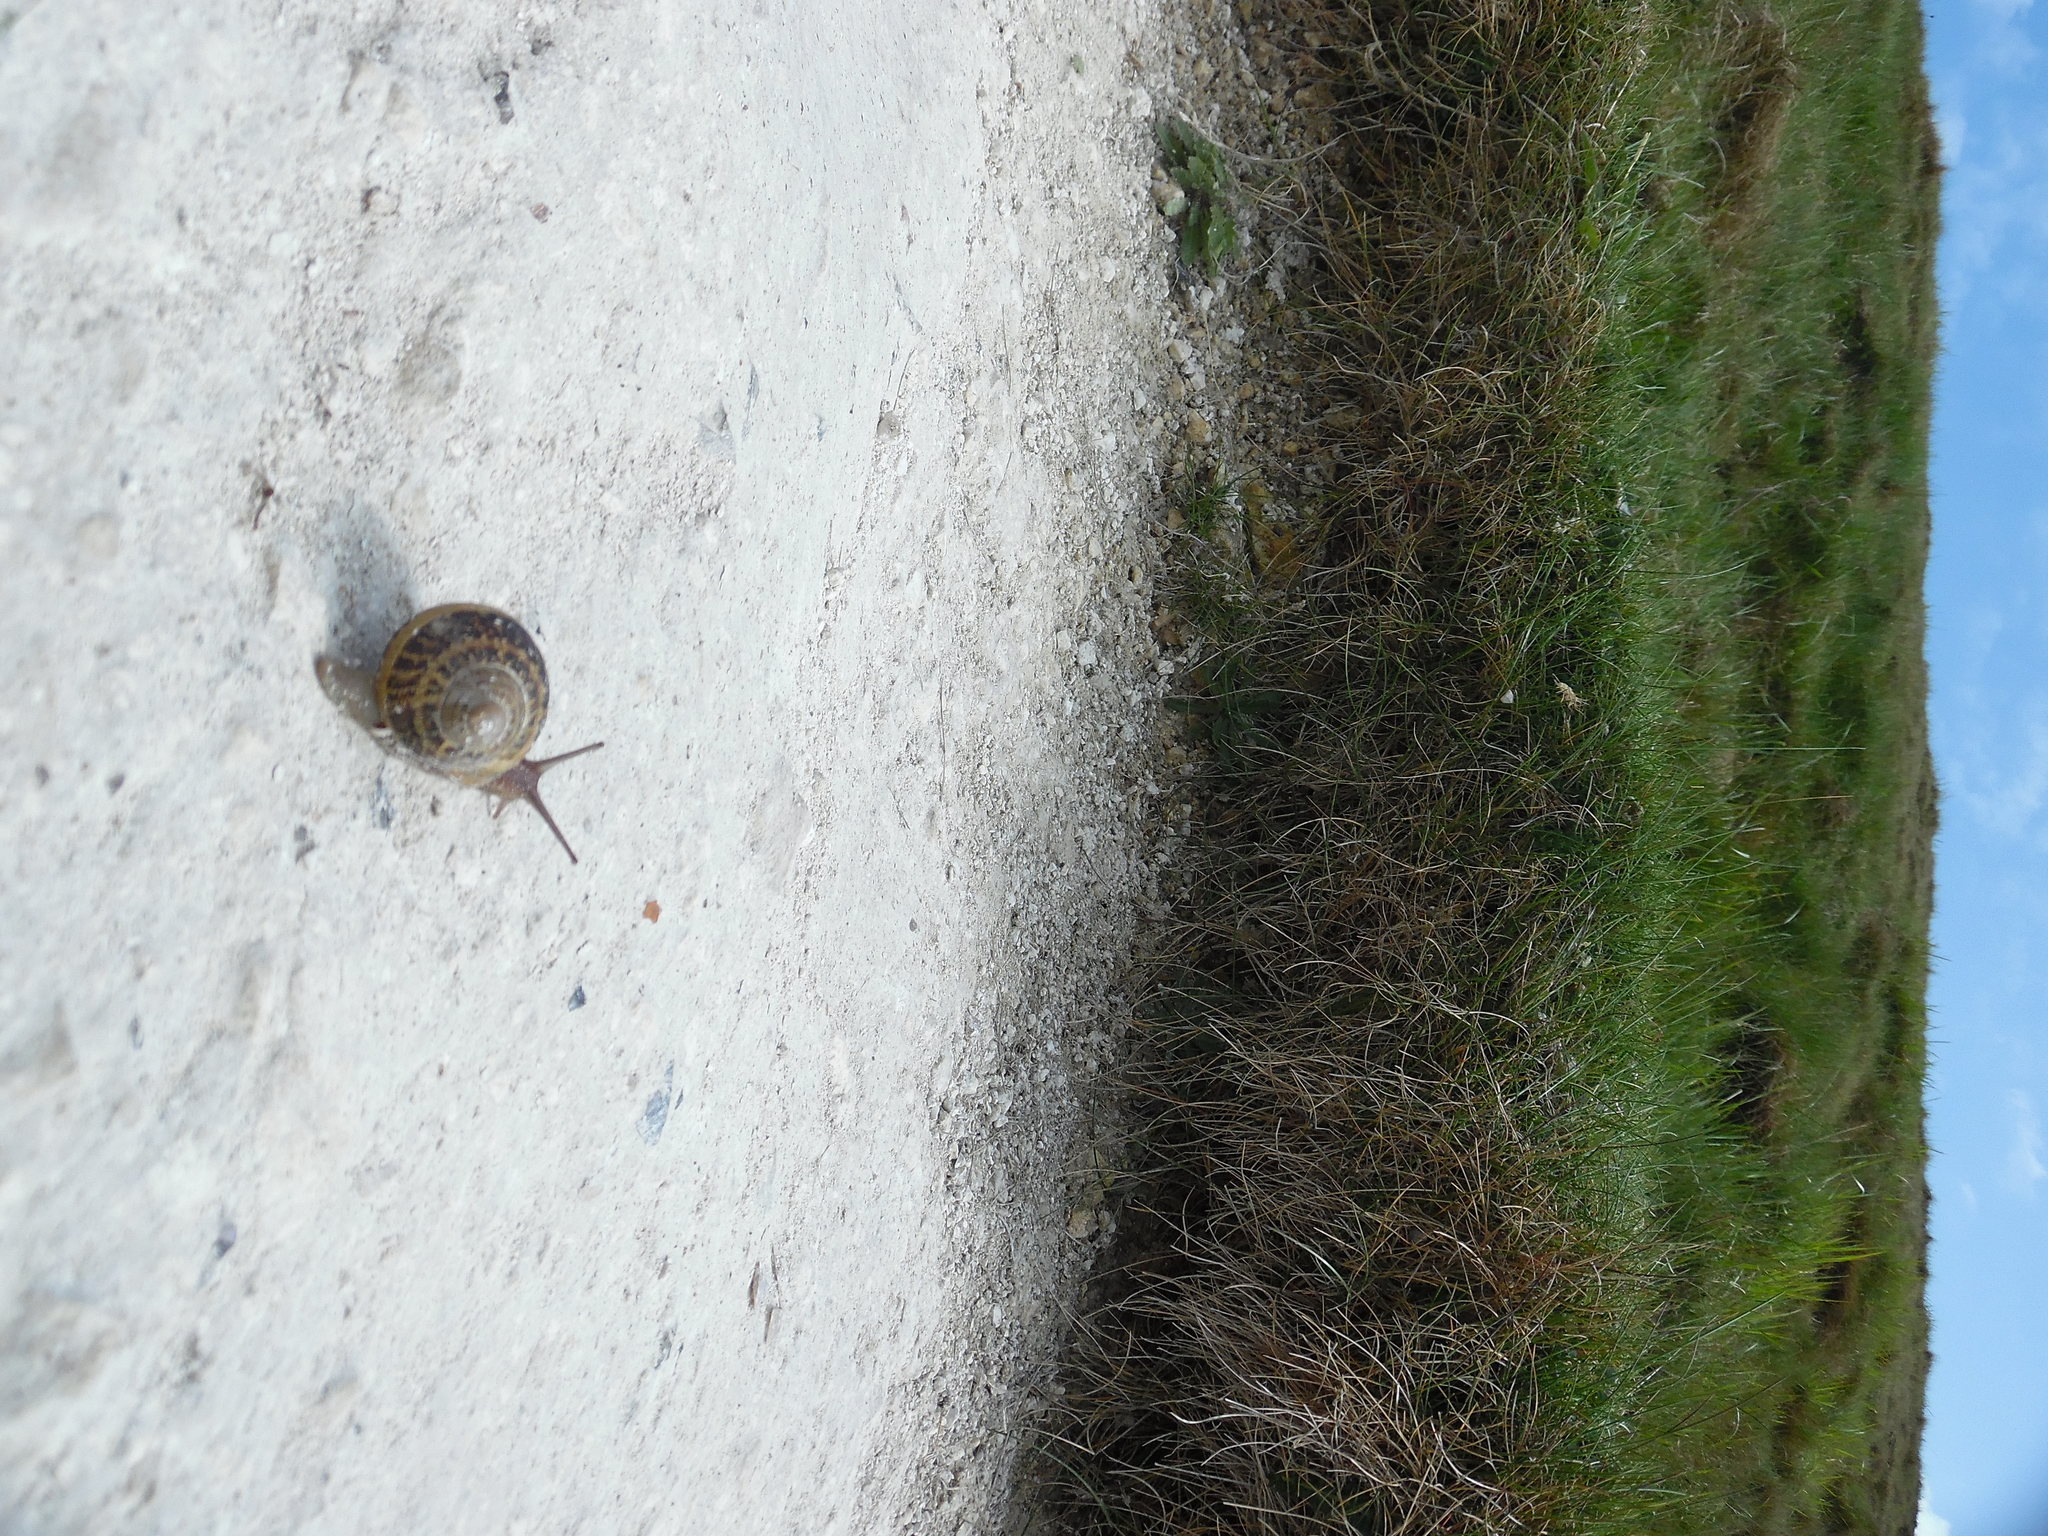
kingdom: Animalia
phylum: Mollusca
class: Gastropoda
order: Stylommatophora
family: Helicidae
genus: Cornu
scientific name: Cornu aspersum
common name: Brown garden snail
